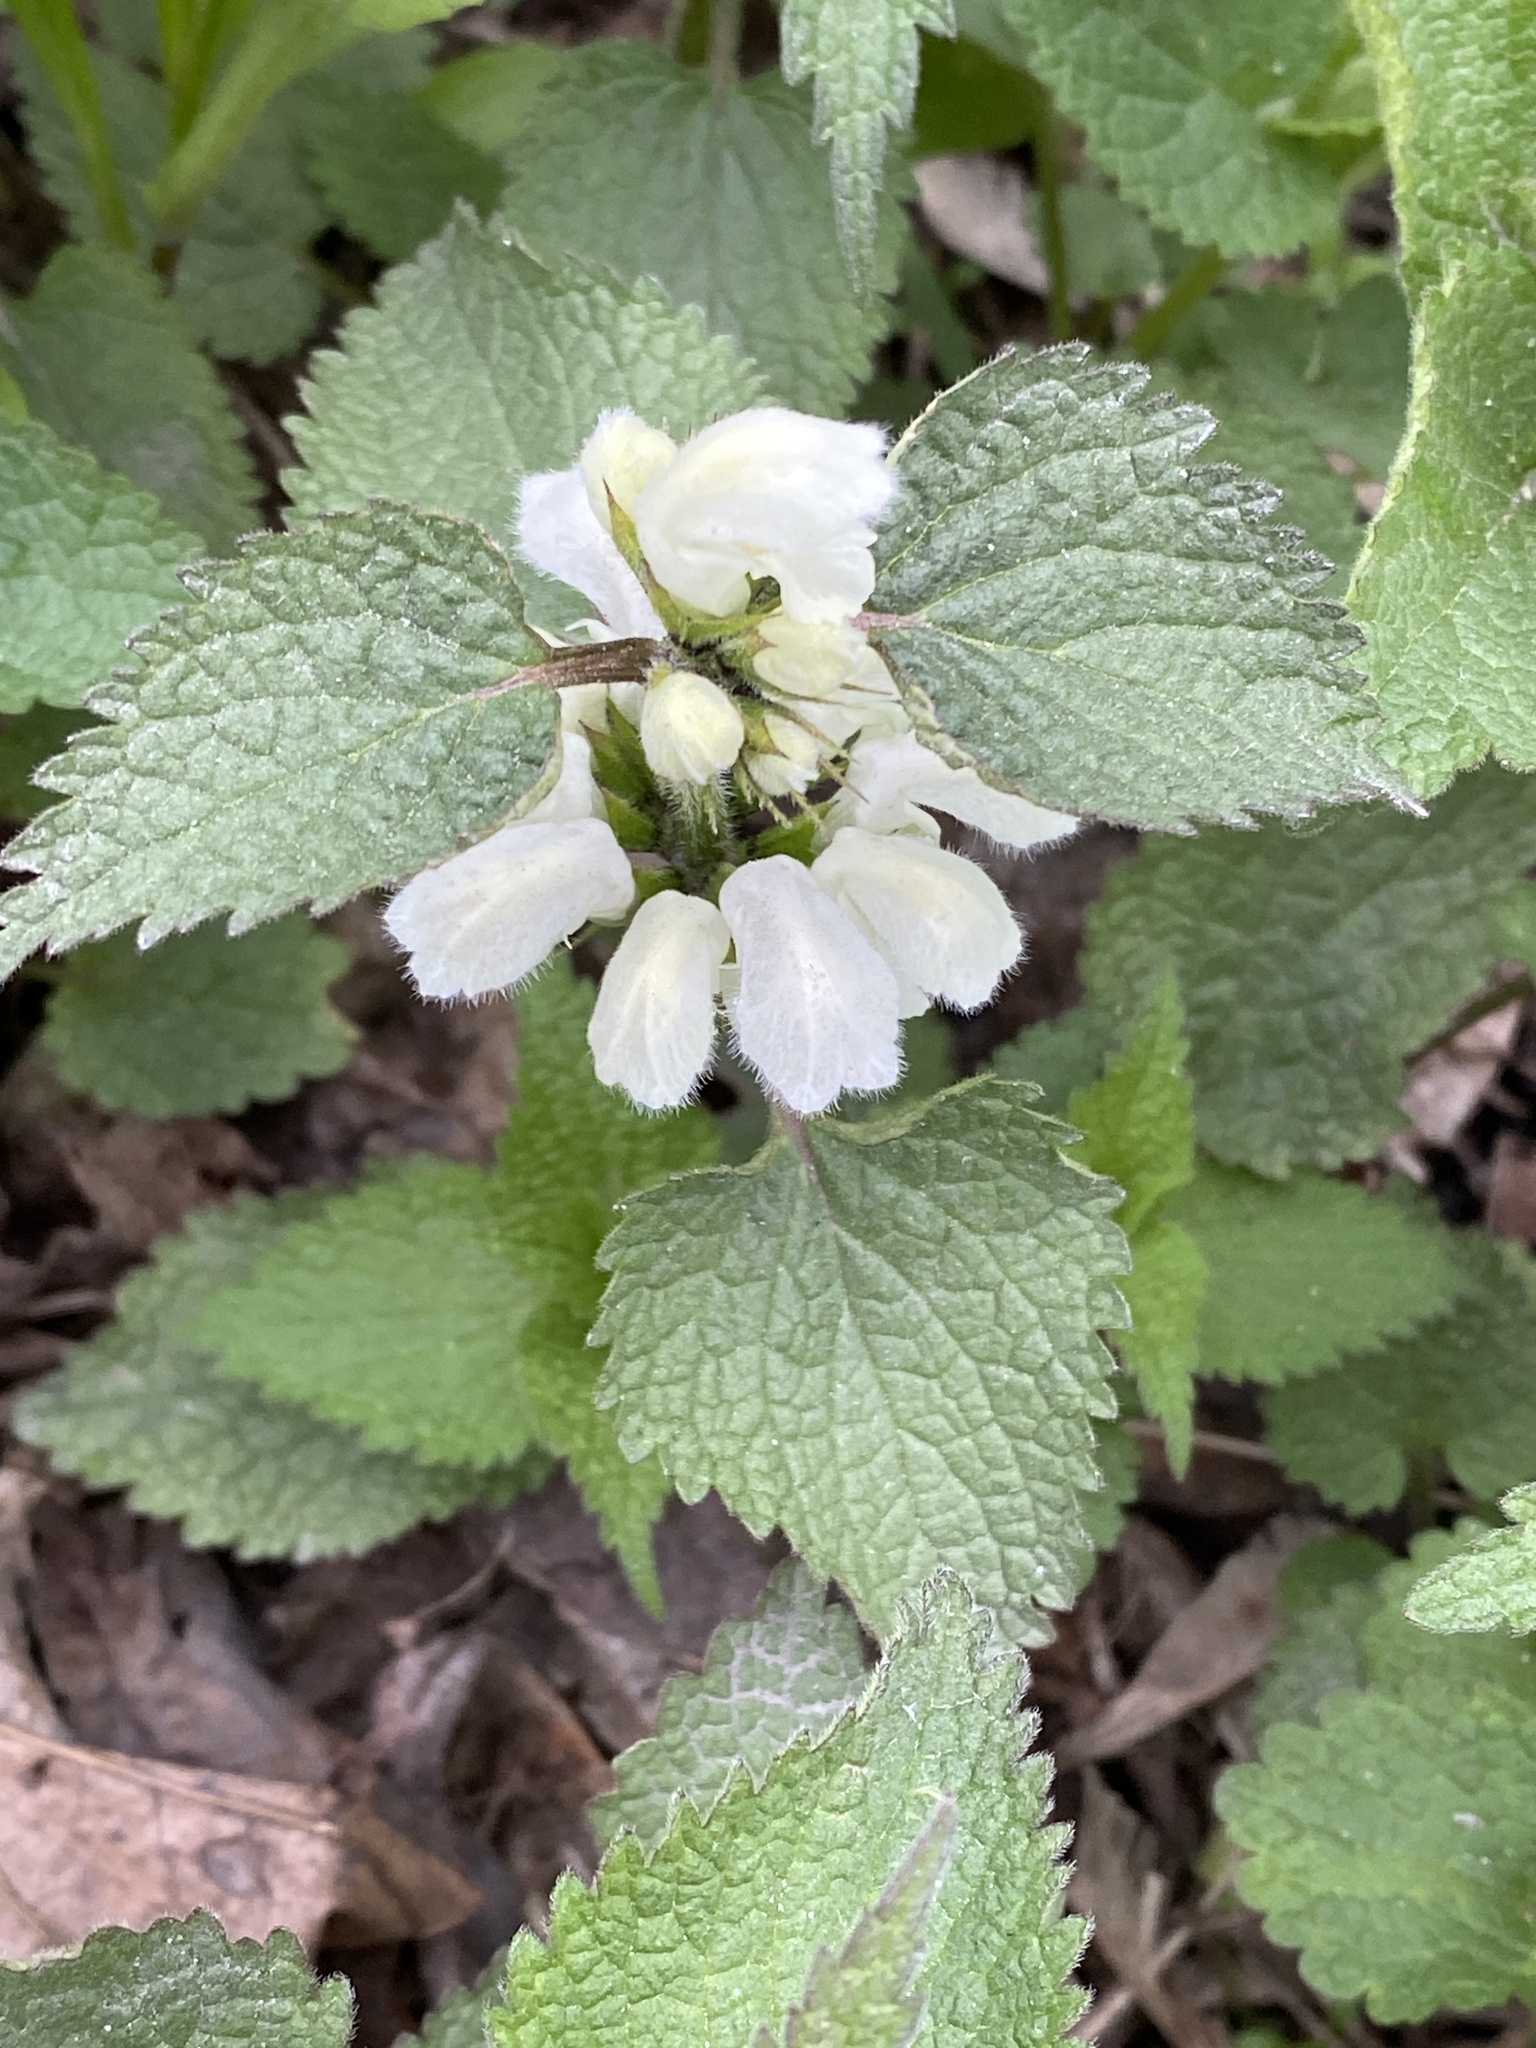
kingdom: Plantae
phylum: Tracheophyta
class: Magnoliopsida
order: Lamiales
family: Lamiaceae
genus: Lamium
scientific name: Lamium album
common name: White dead-nettle
